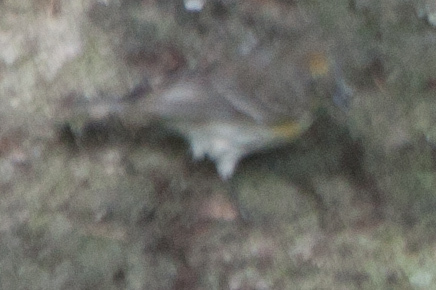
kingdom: Animalia
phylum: Chordata
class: Aves
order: Passeriformes
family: Parulidae
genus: Setophaga
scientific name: Setophaga coronata
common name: Myrtle warbler
